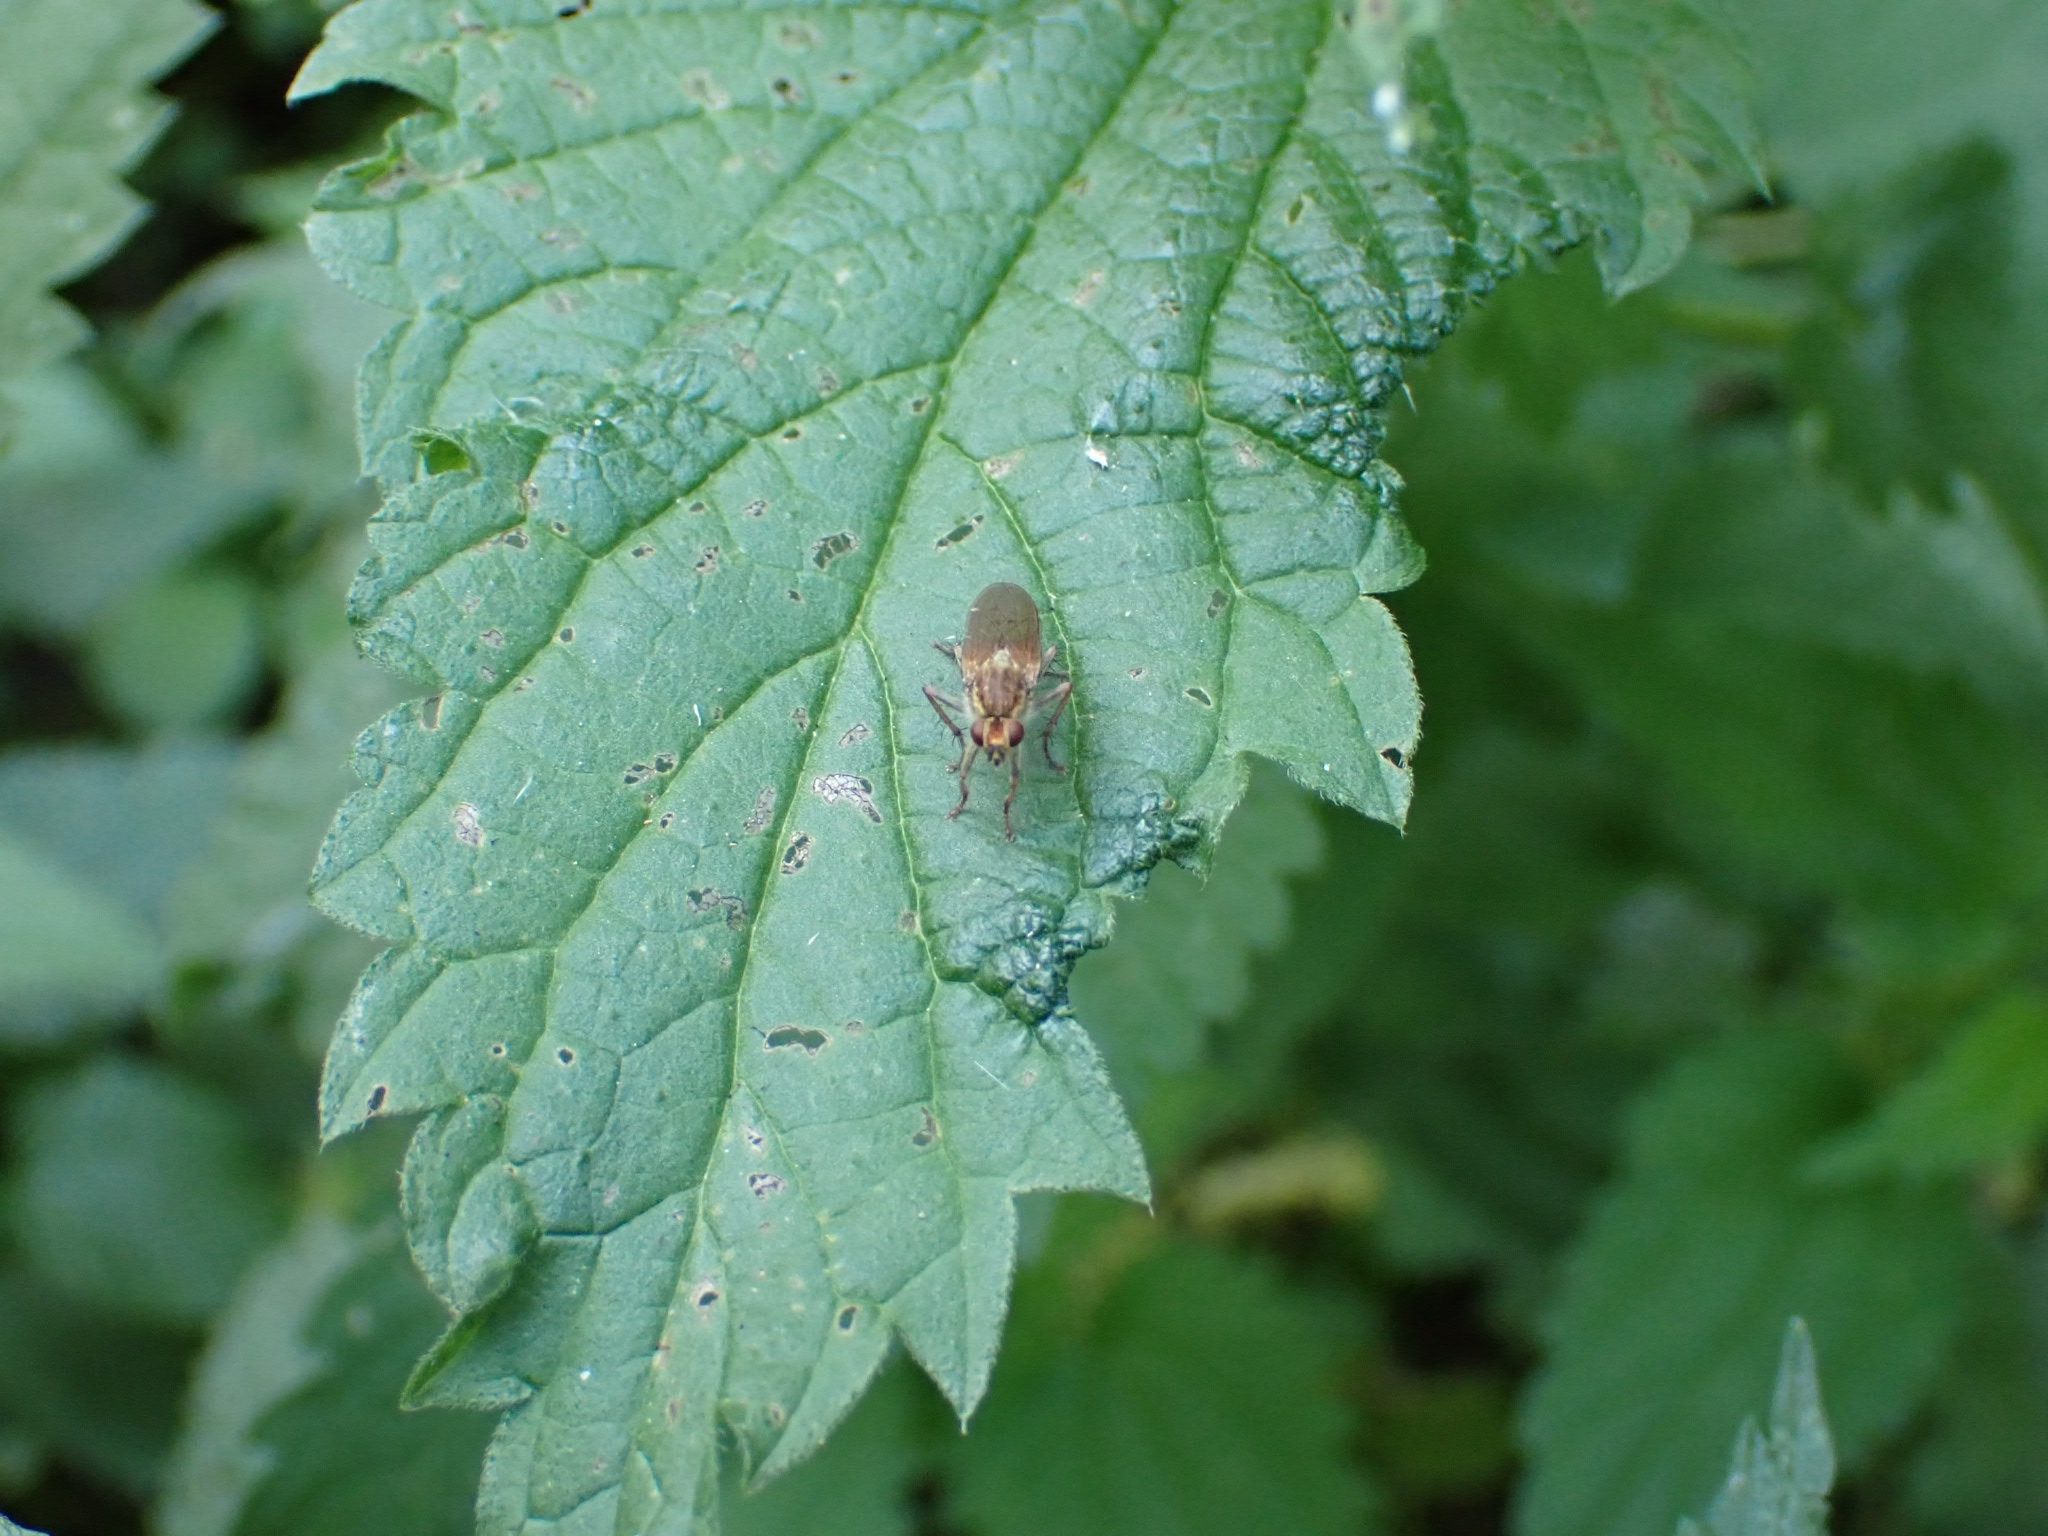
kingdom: Animalia
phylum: Arthropoda
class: Insecta
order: Diptera
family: Scathophagidae
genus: Scathophaga
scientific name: Scathophaga stercoraria
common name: Yellow dung fly
